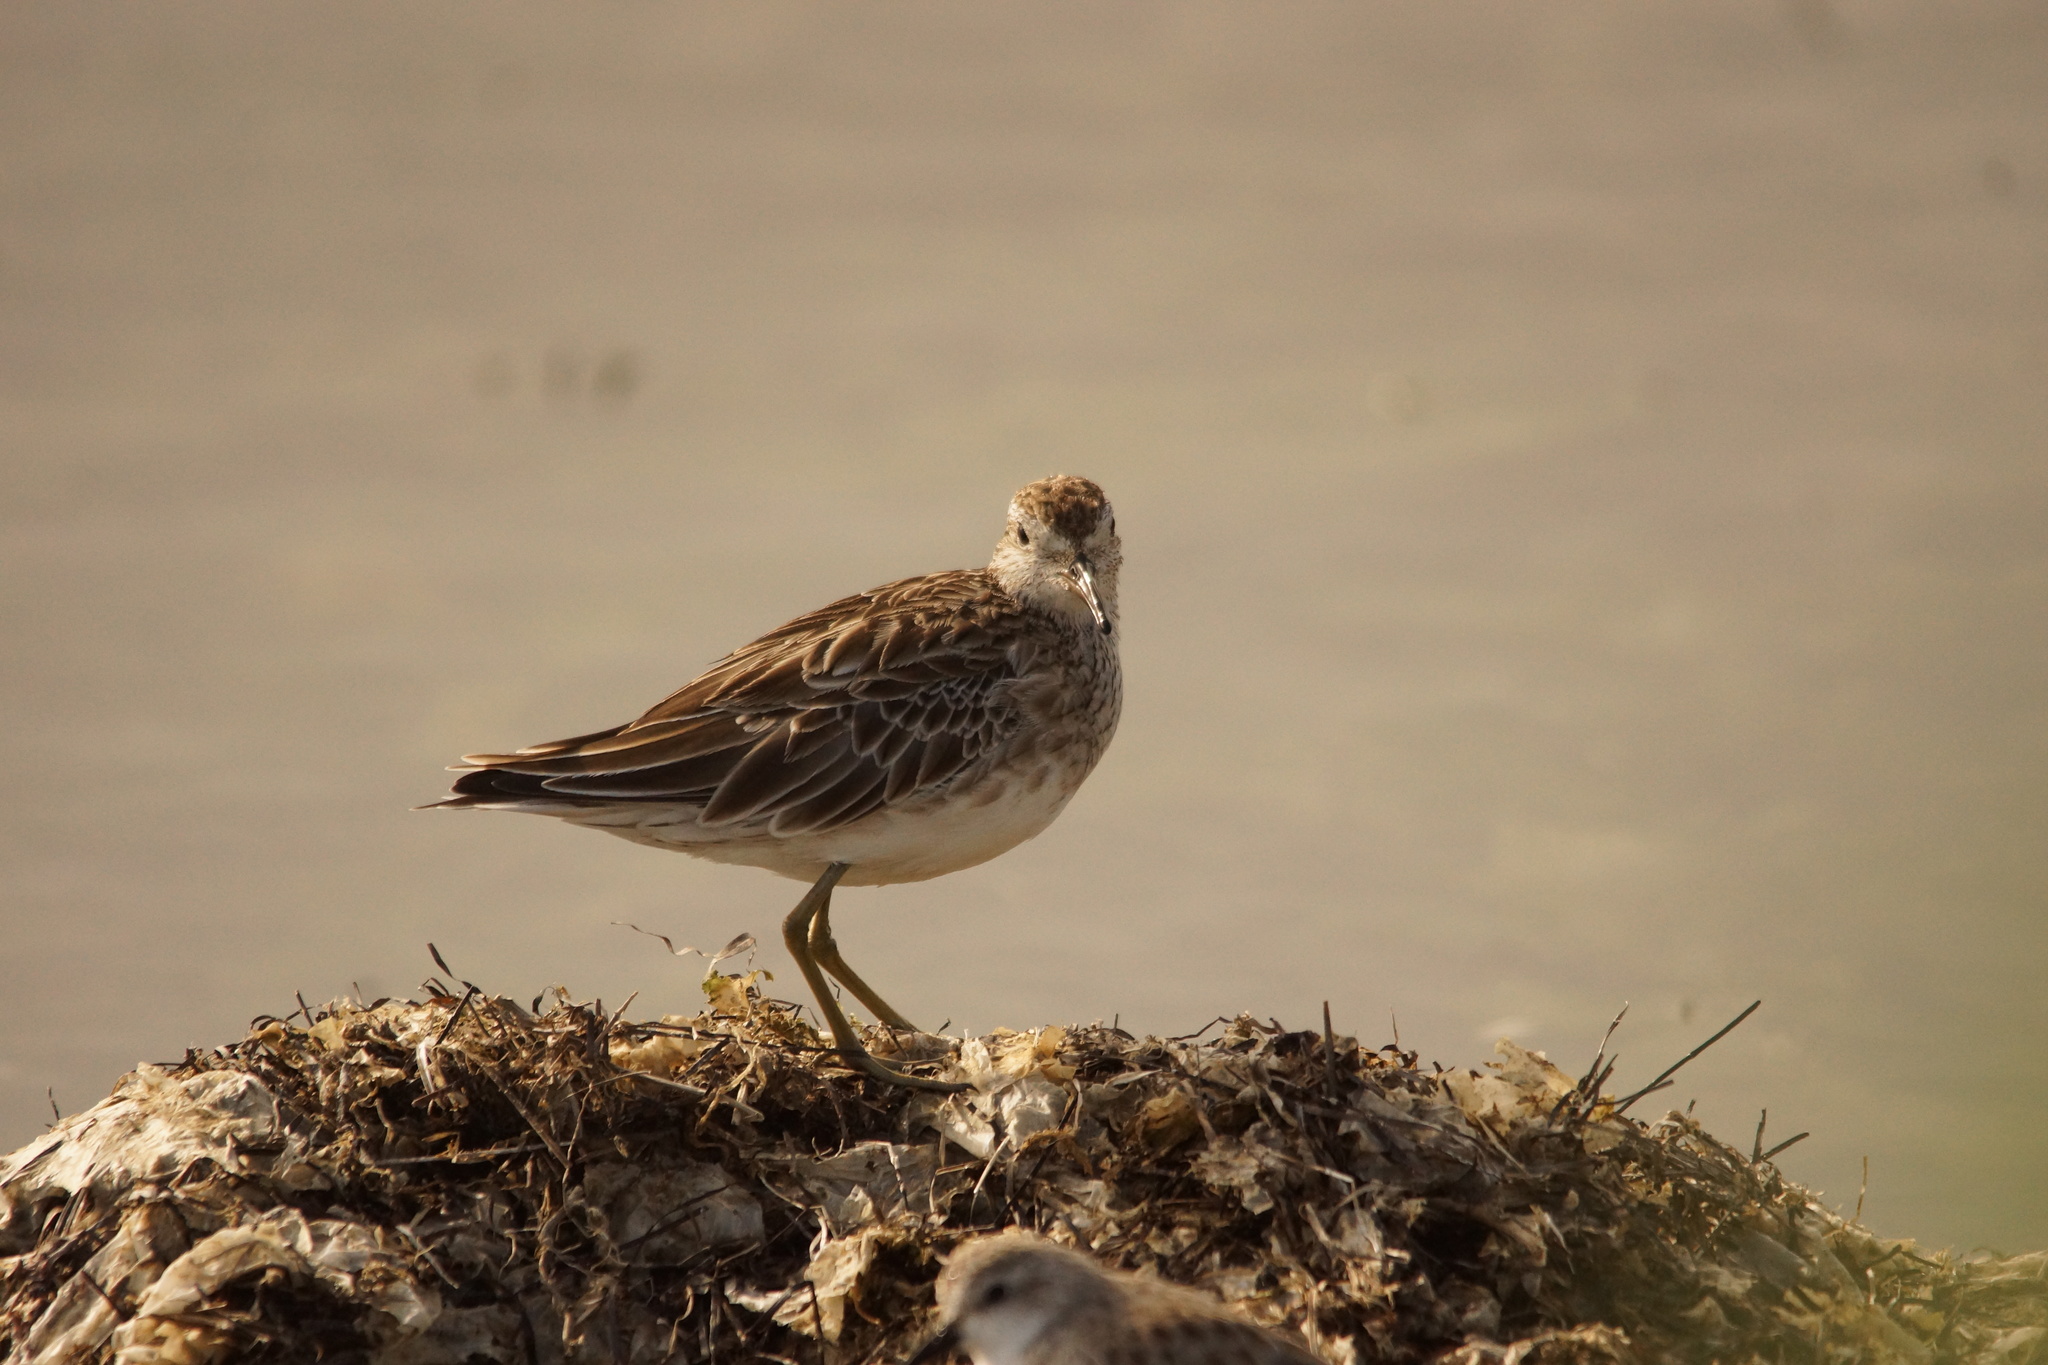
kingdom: Animalia
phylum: Chordata
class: Aves
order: Charadriiformes
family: Scolopacidae
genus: Calidris
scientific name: Calidris acuminata
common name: Sharp-tailed sandpiper
